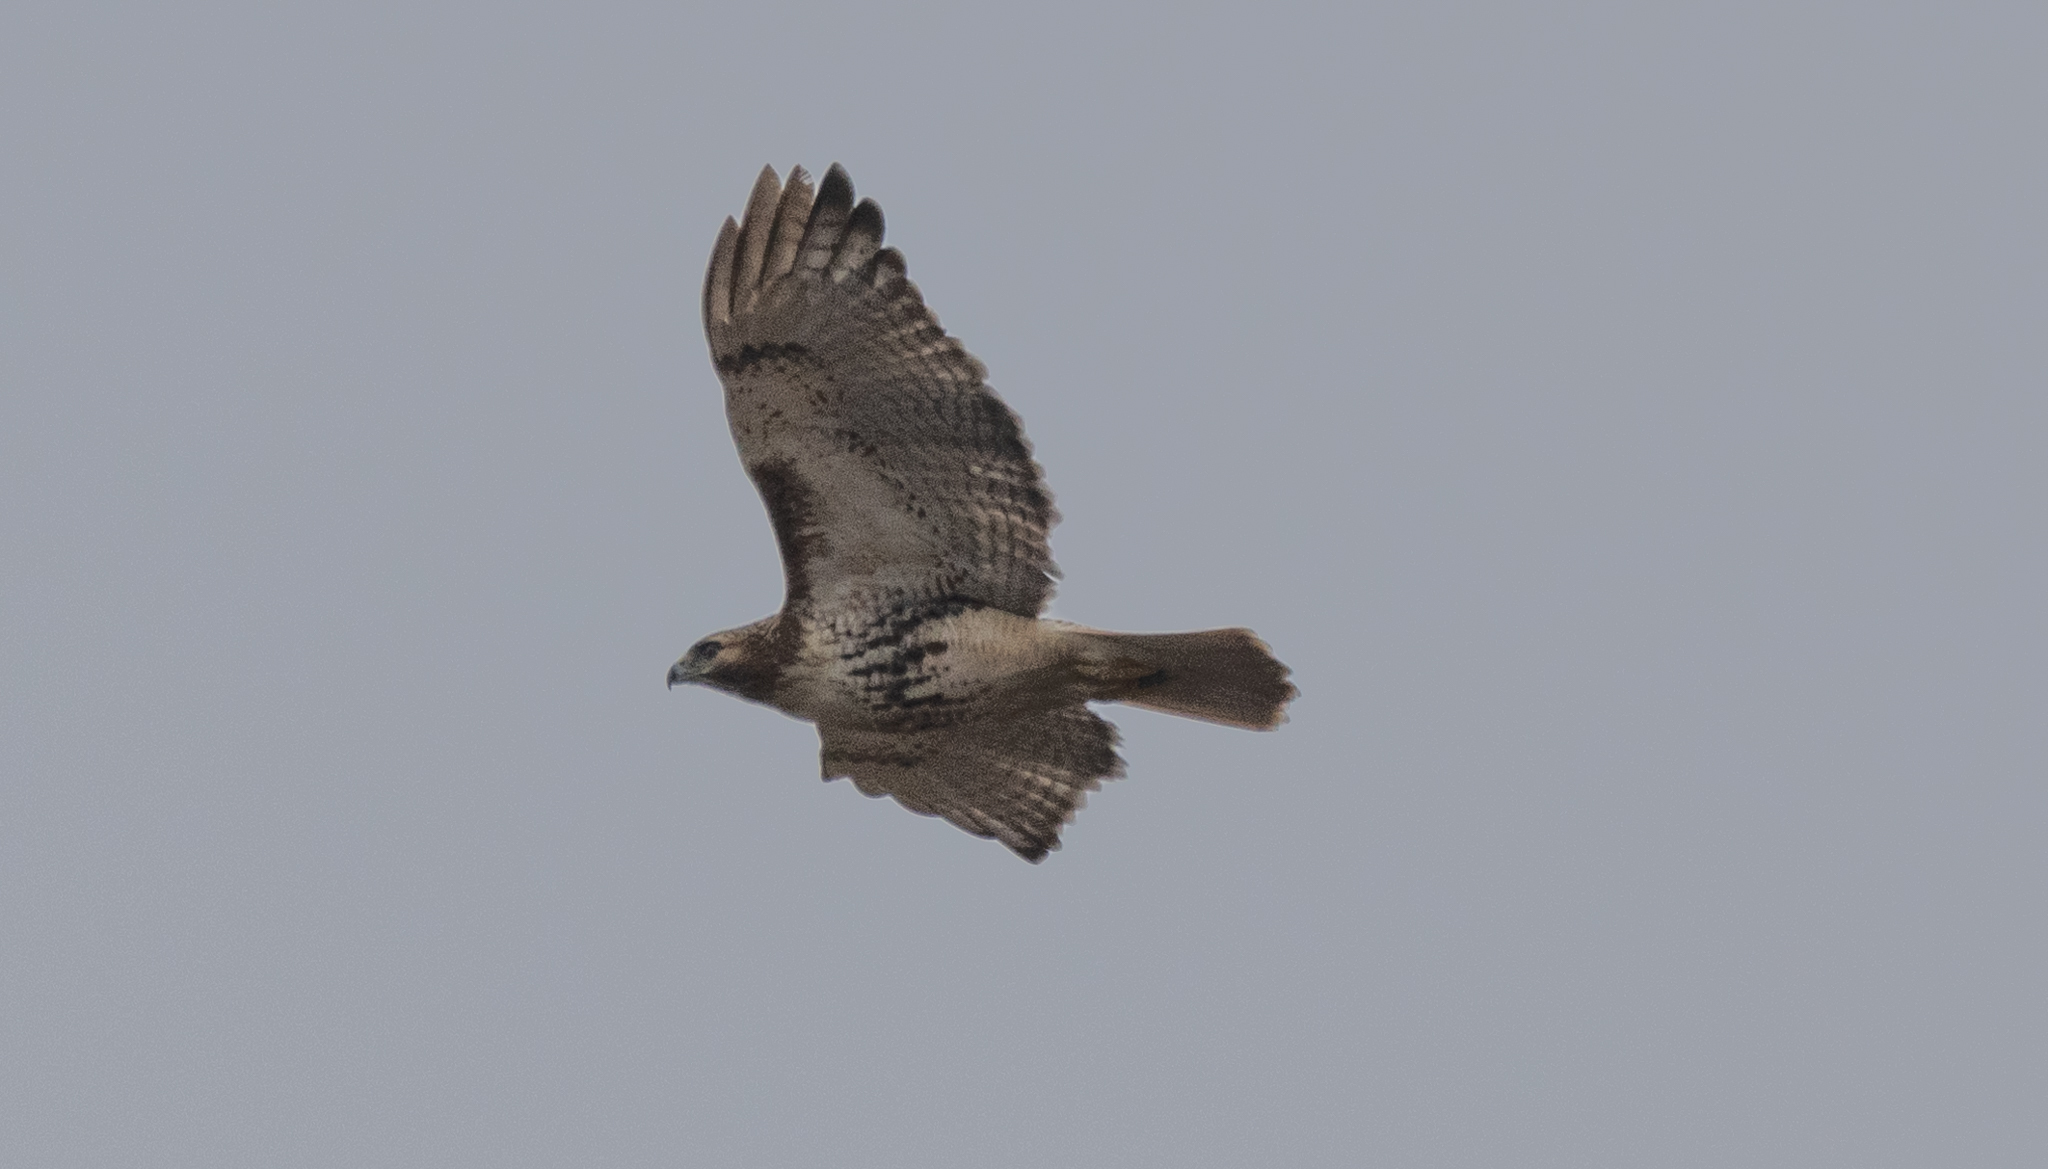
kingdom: Animalia
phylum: Chordata
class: Aves
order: Accipitriformes
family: Accipitridae
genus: Buteo
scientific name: Buteo jamaicensis
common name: Red-tailed hawk
